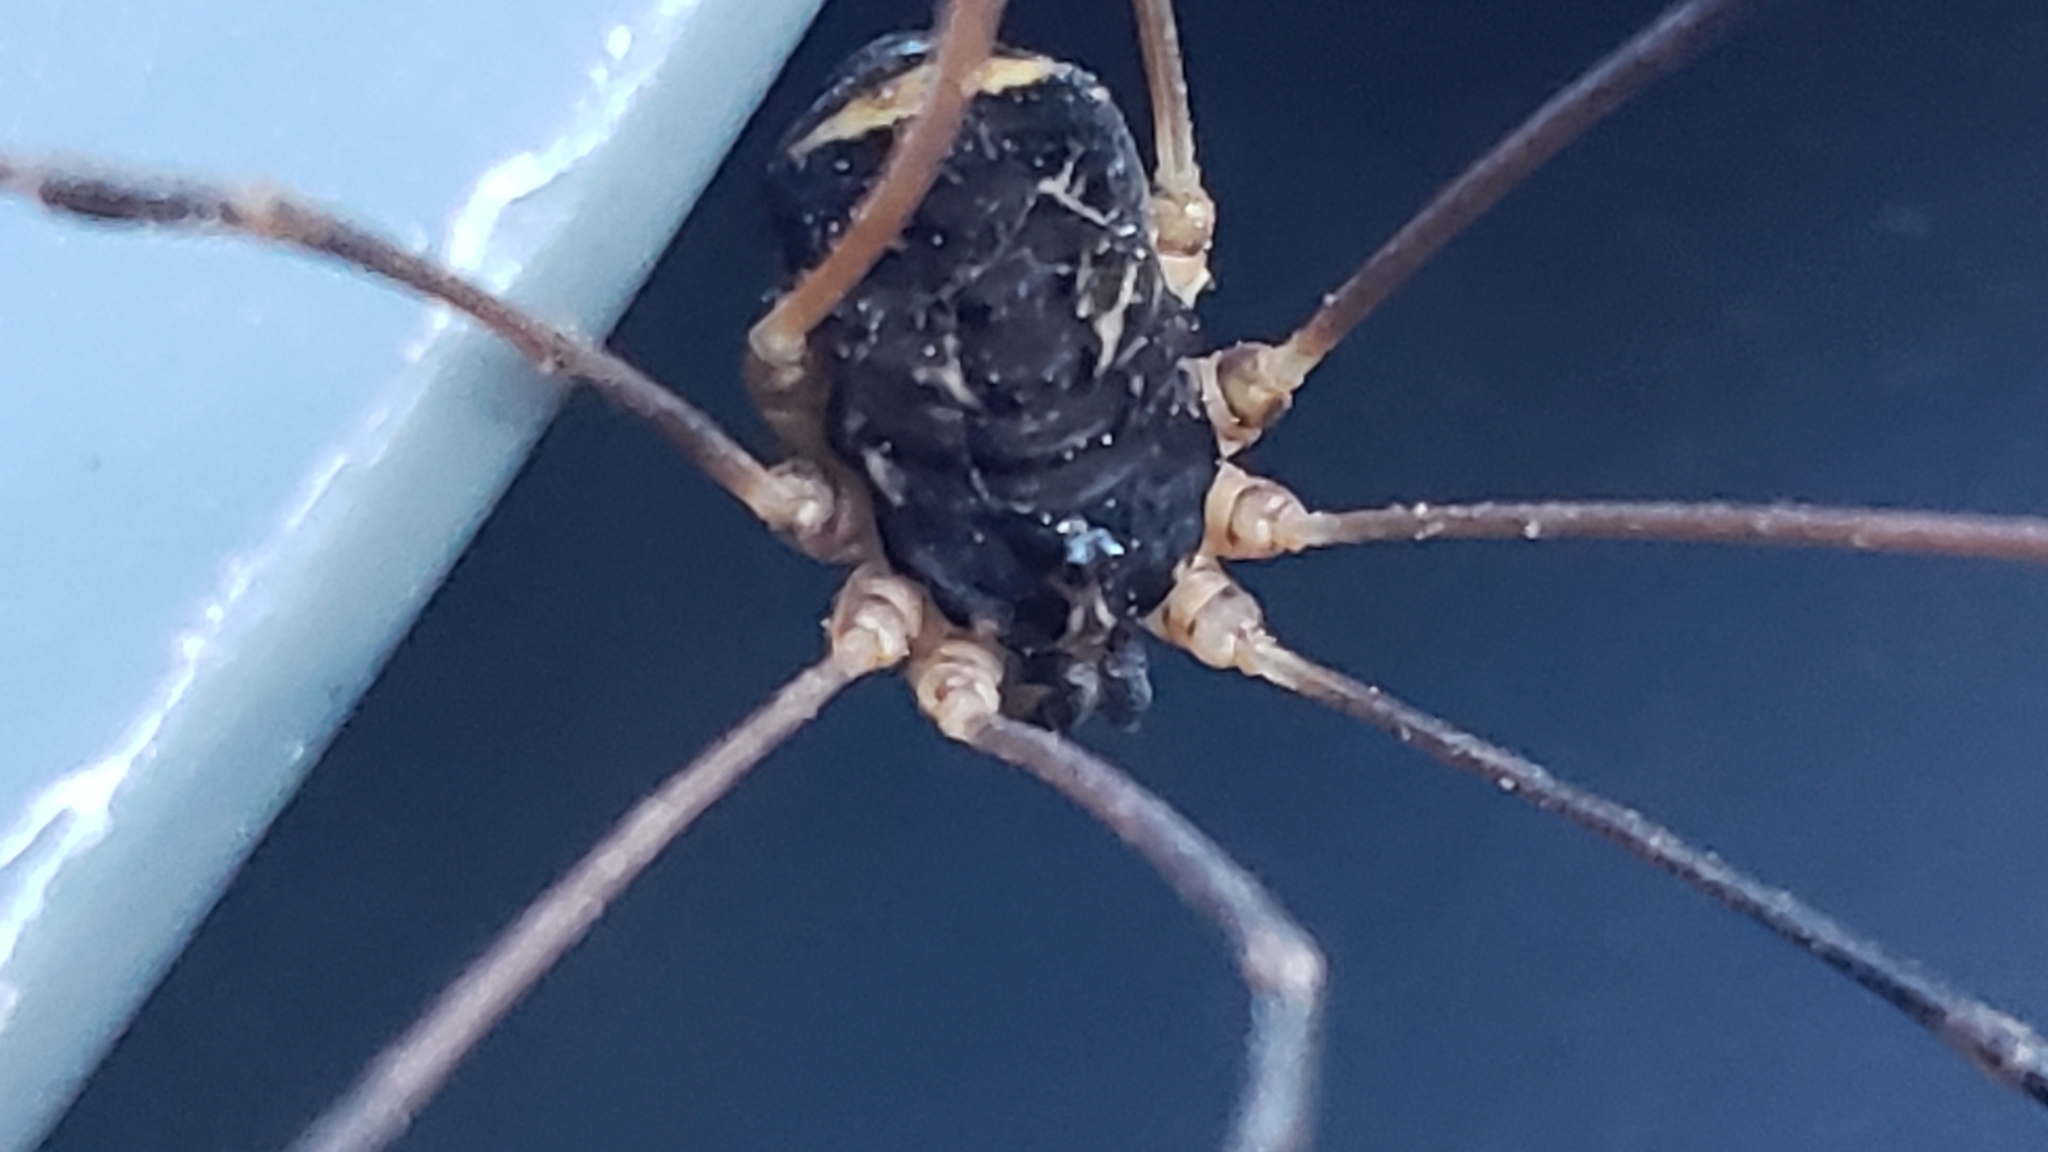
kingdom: Animalia
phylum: Arthropoda
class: Arachnida
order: Opiliones
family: Sclerosomatidae
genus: Nelima
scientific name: Nelima paessleri
